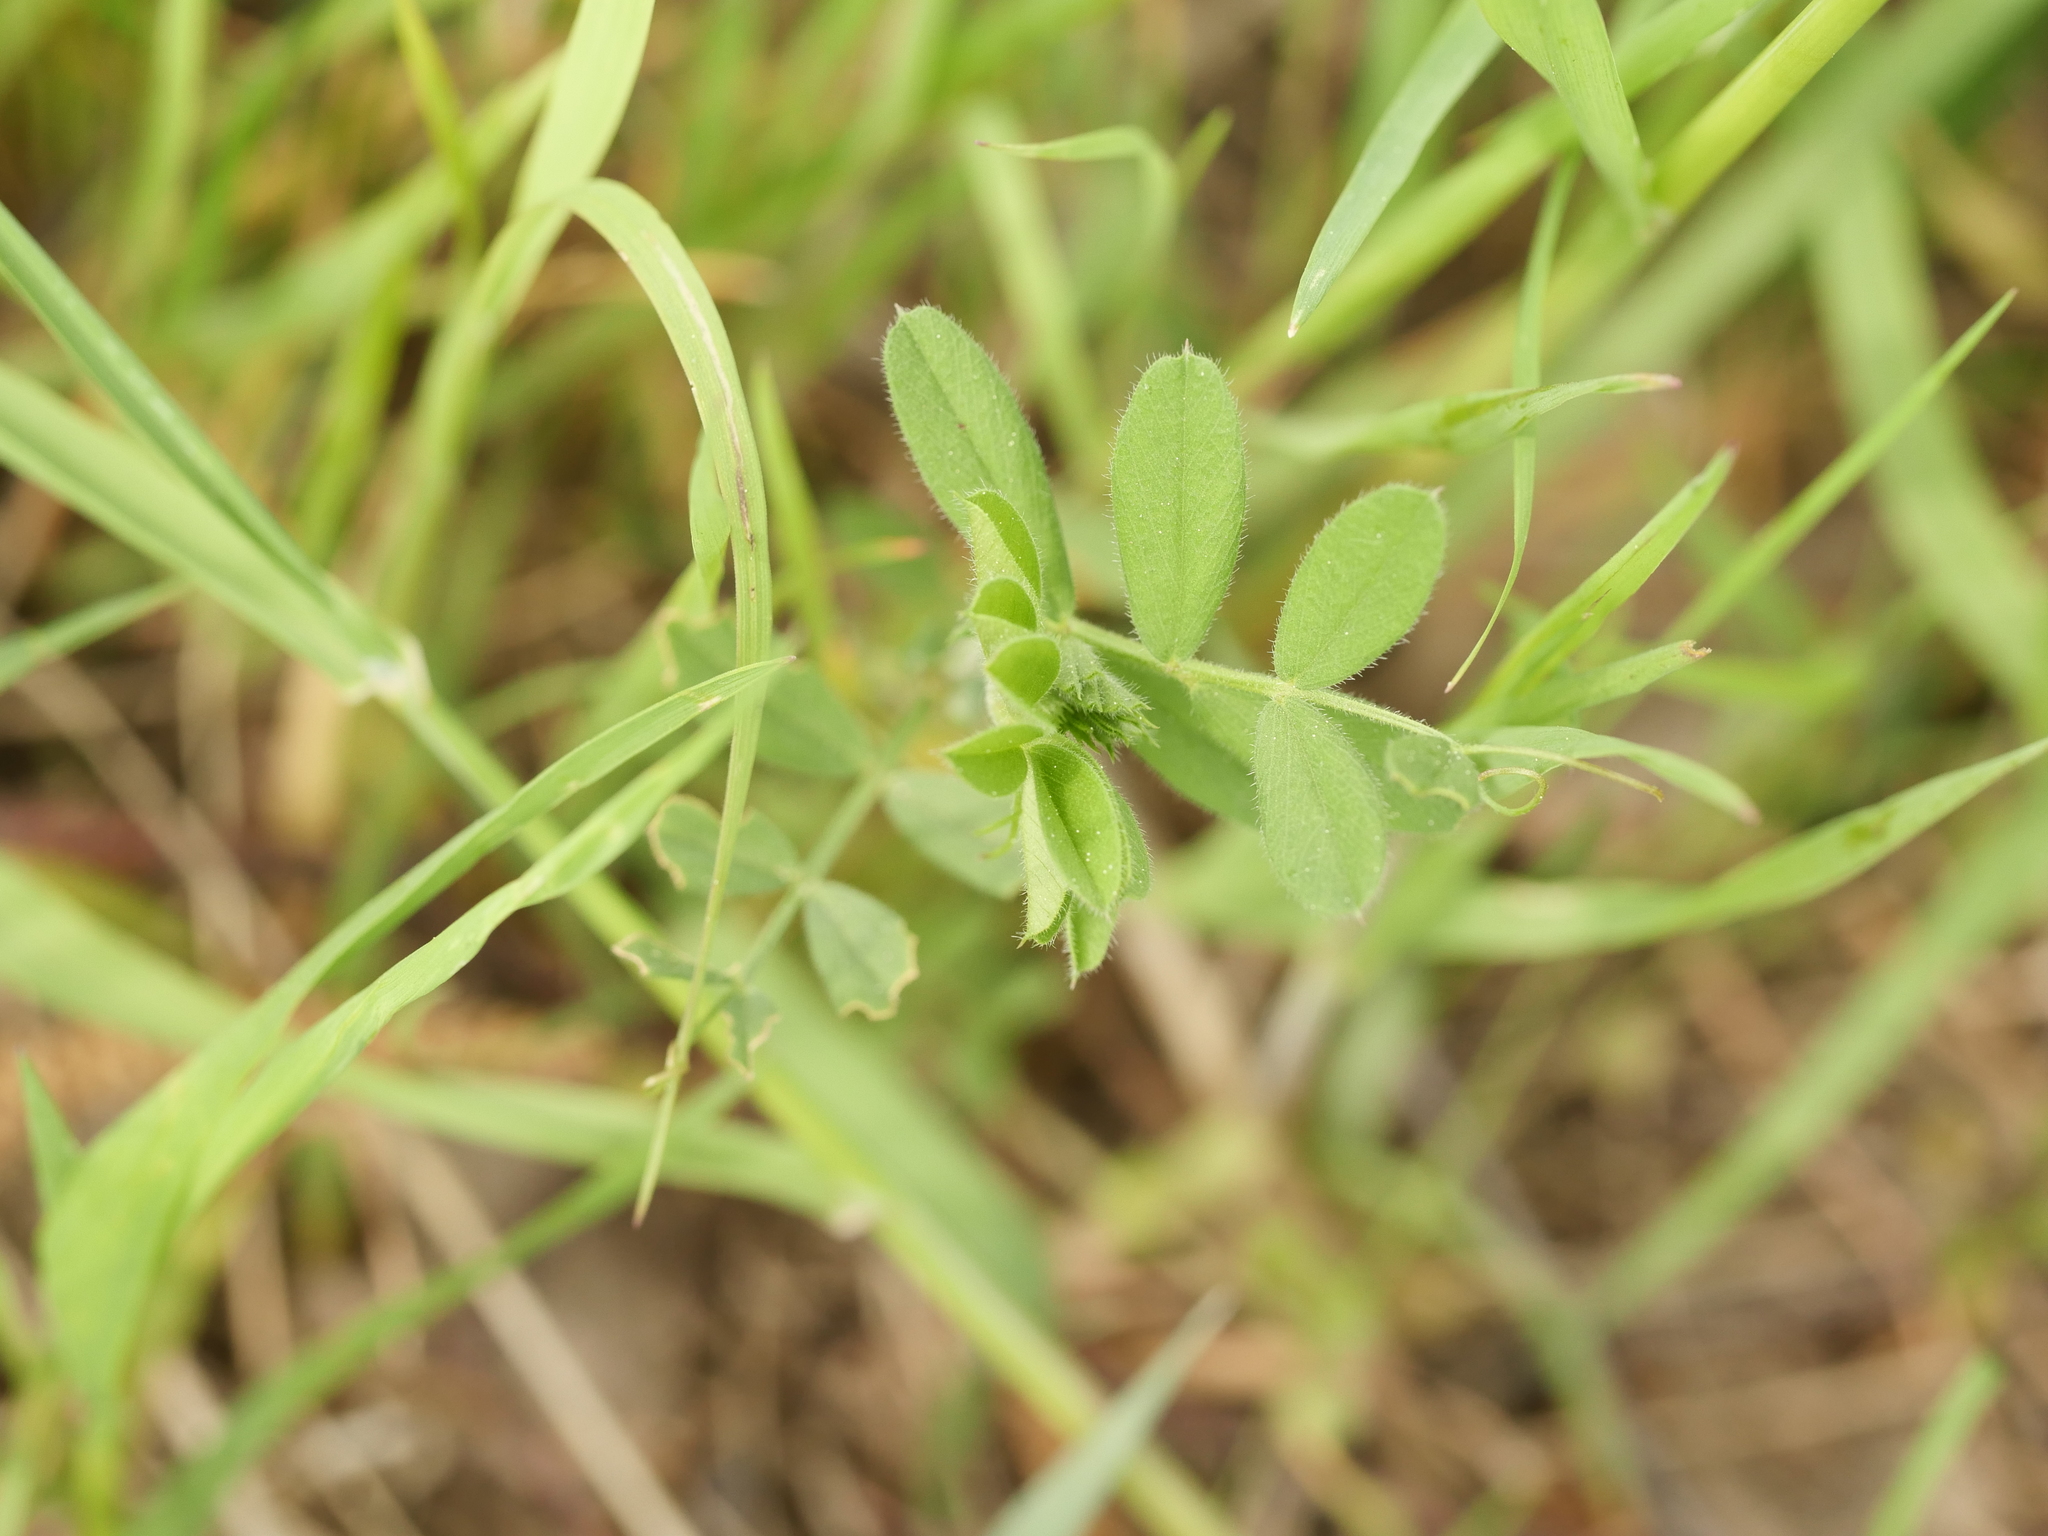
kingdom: Plantae
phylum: Tracheophyta
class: Magnoliopsida
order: Fabales
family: Fabaceae
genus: Vicia
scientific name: Vicia sativa
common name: Garden vetch
